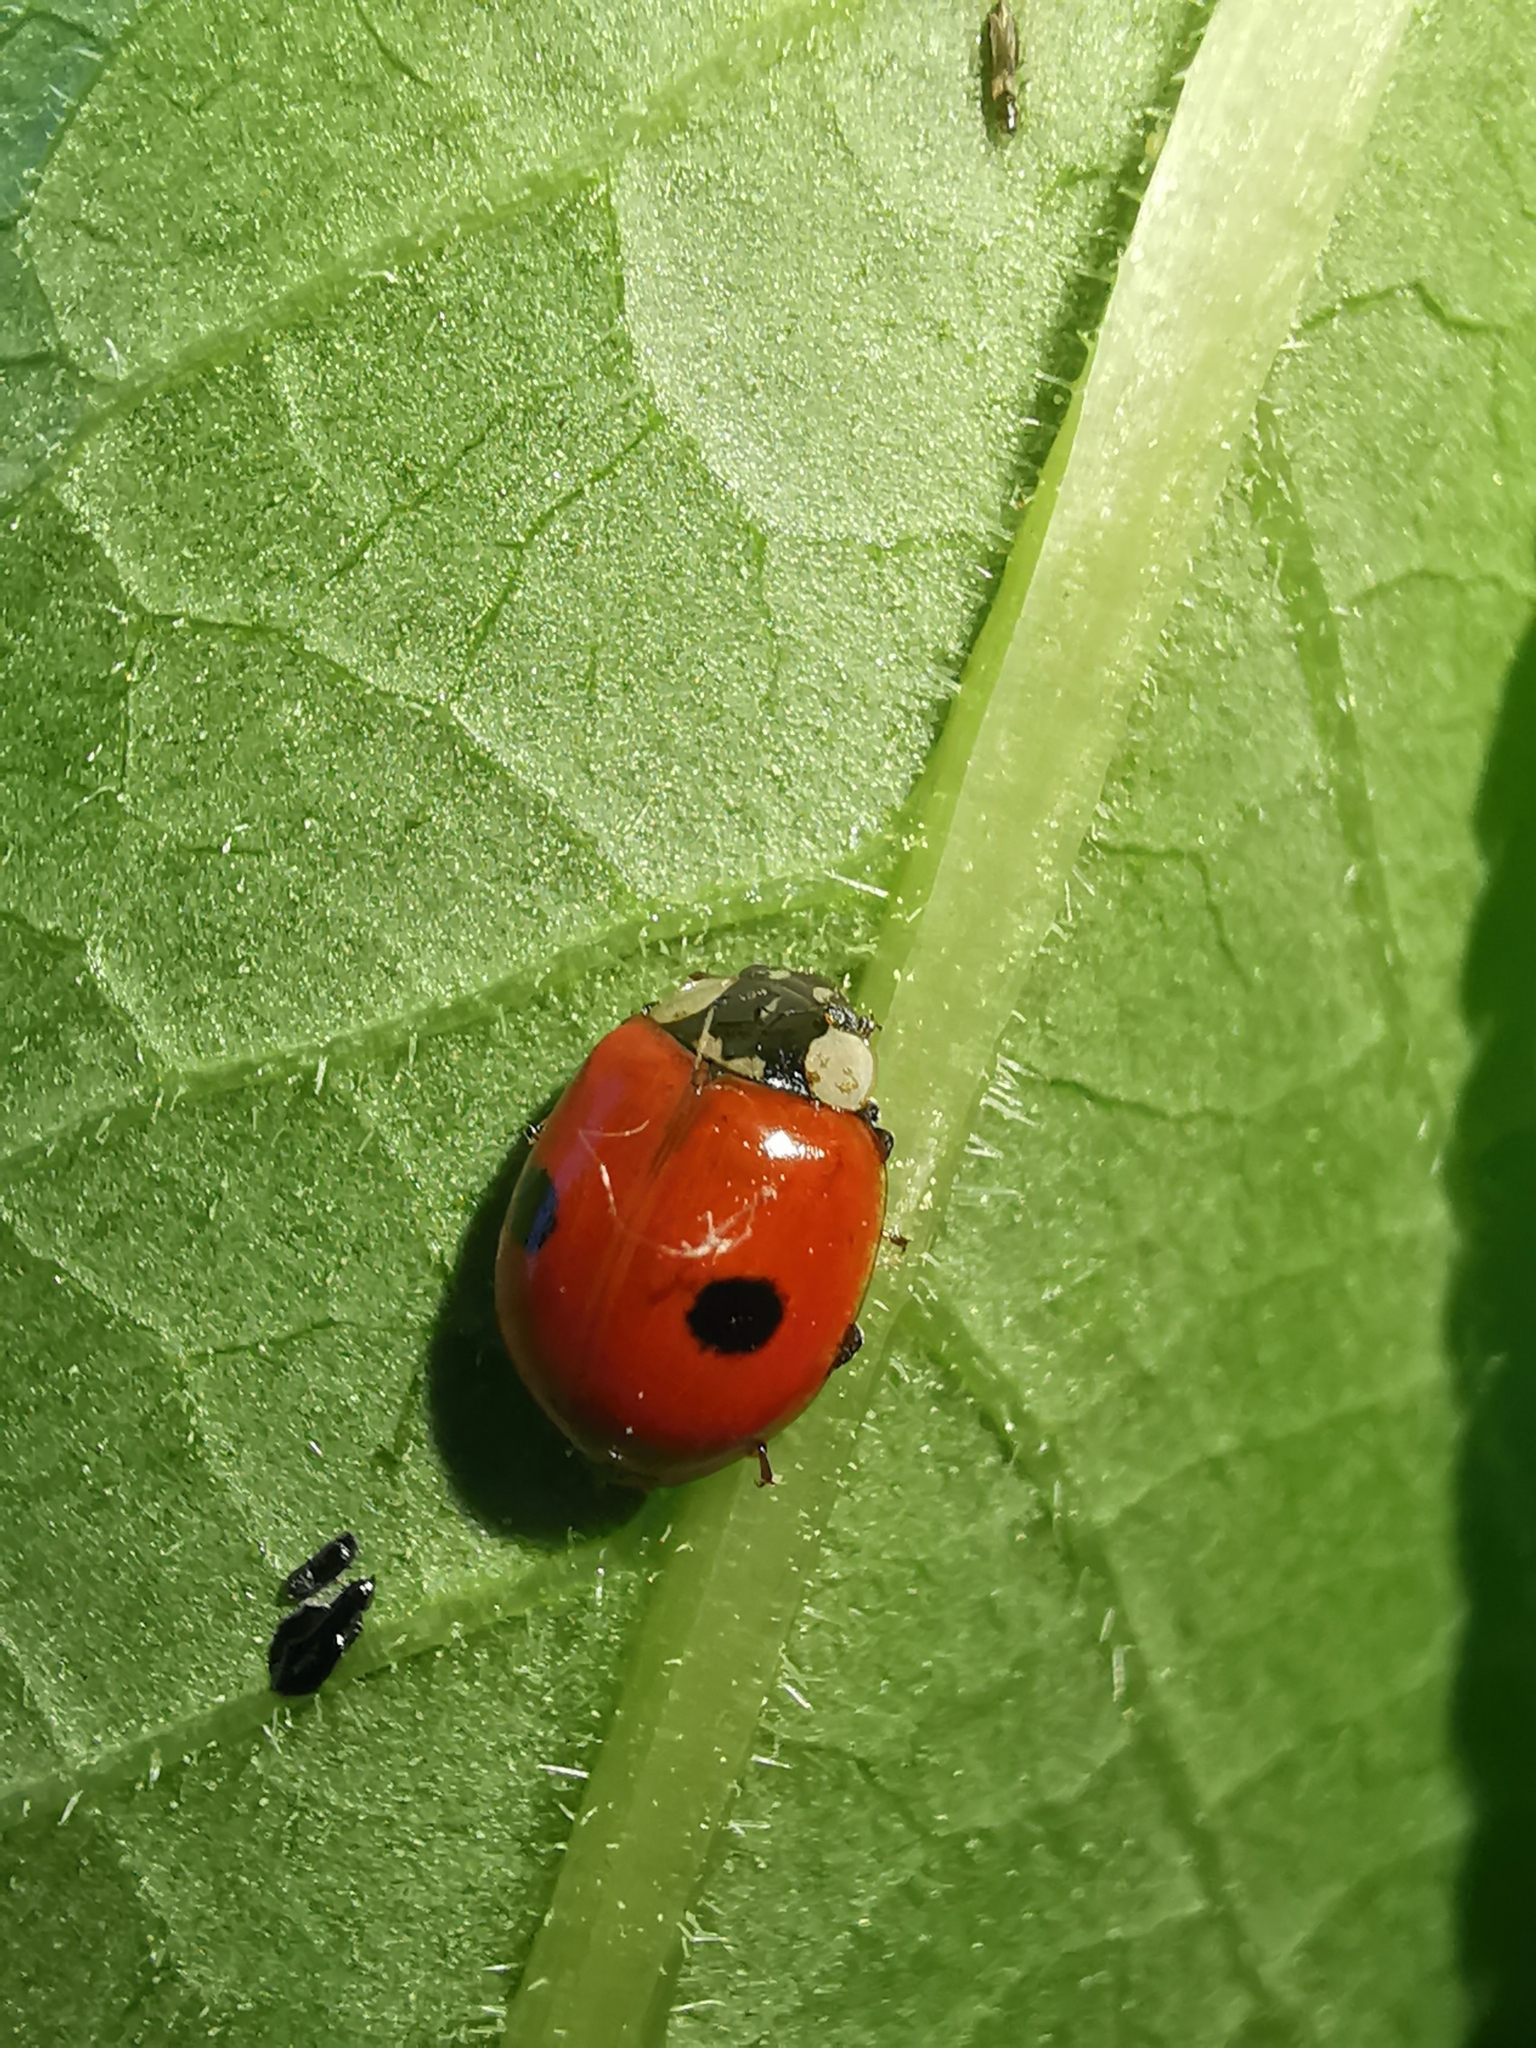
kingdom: Animalia
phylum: Arthropoda
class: Insecta
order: Coleoptera
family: Coccinellidae
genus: Adalia
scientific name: Adalia bipunctata
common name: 2-spot ladybird
